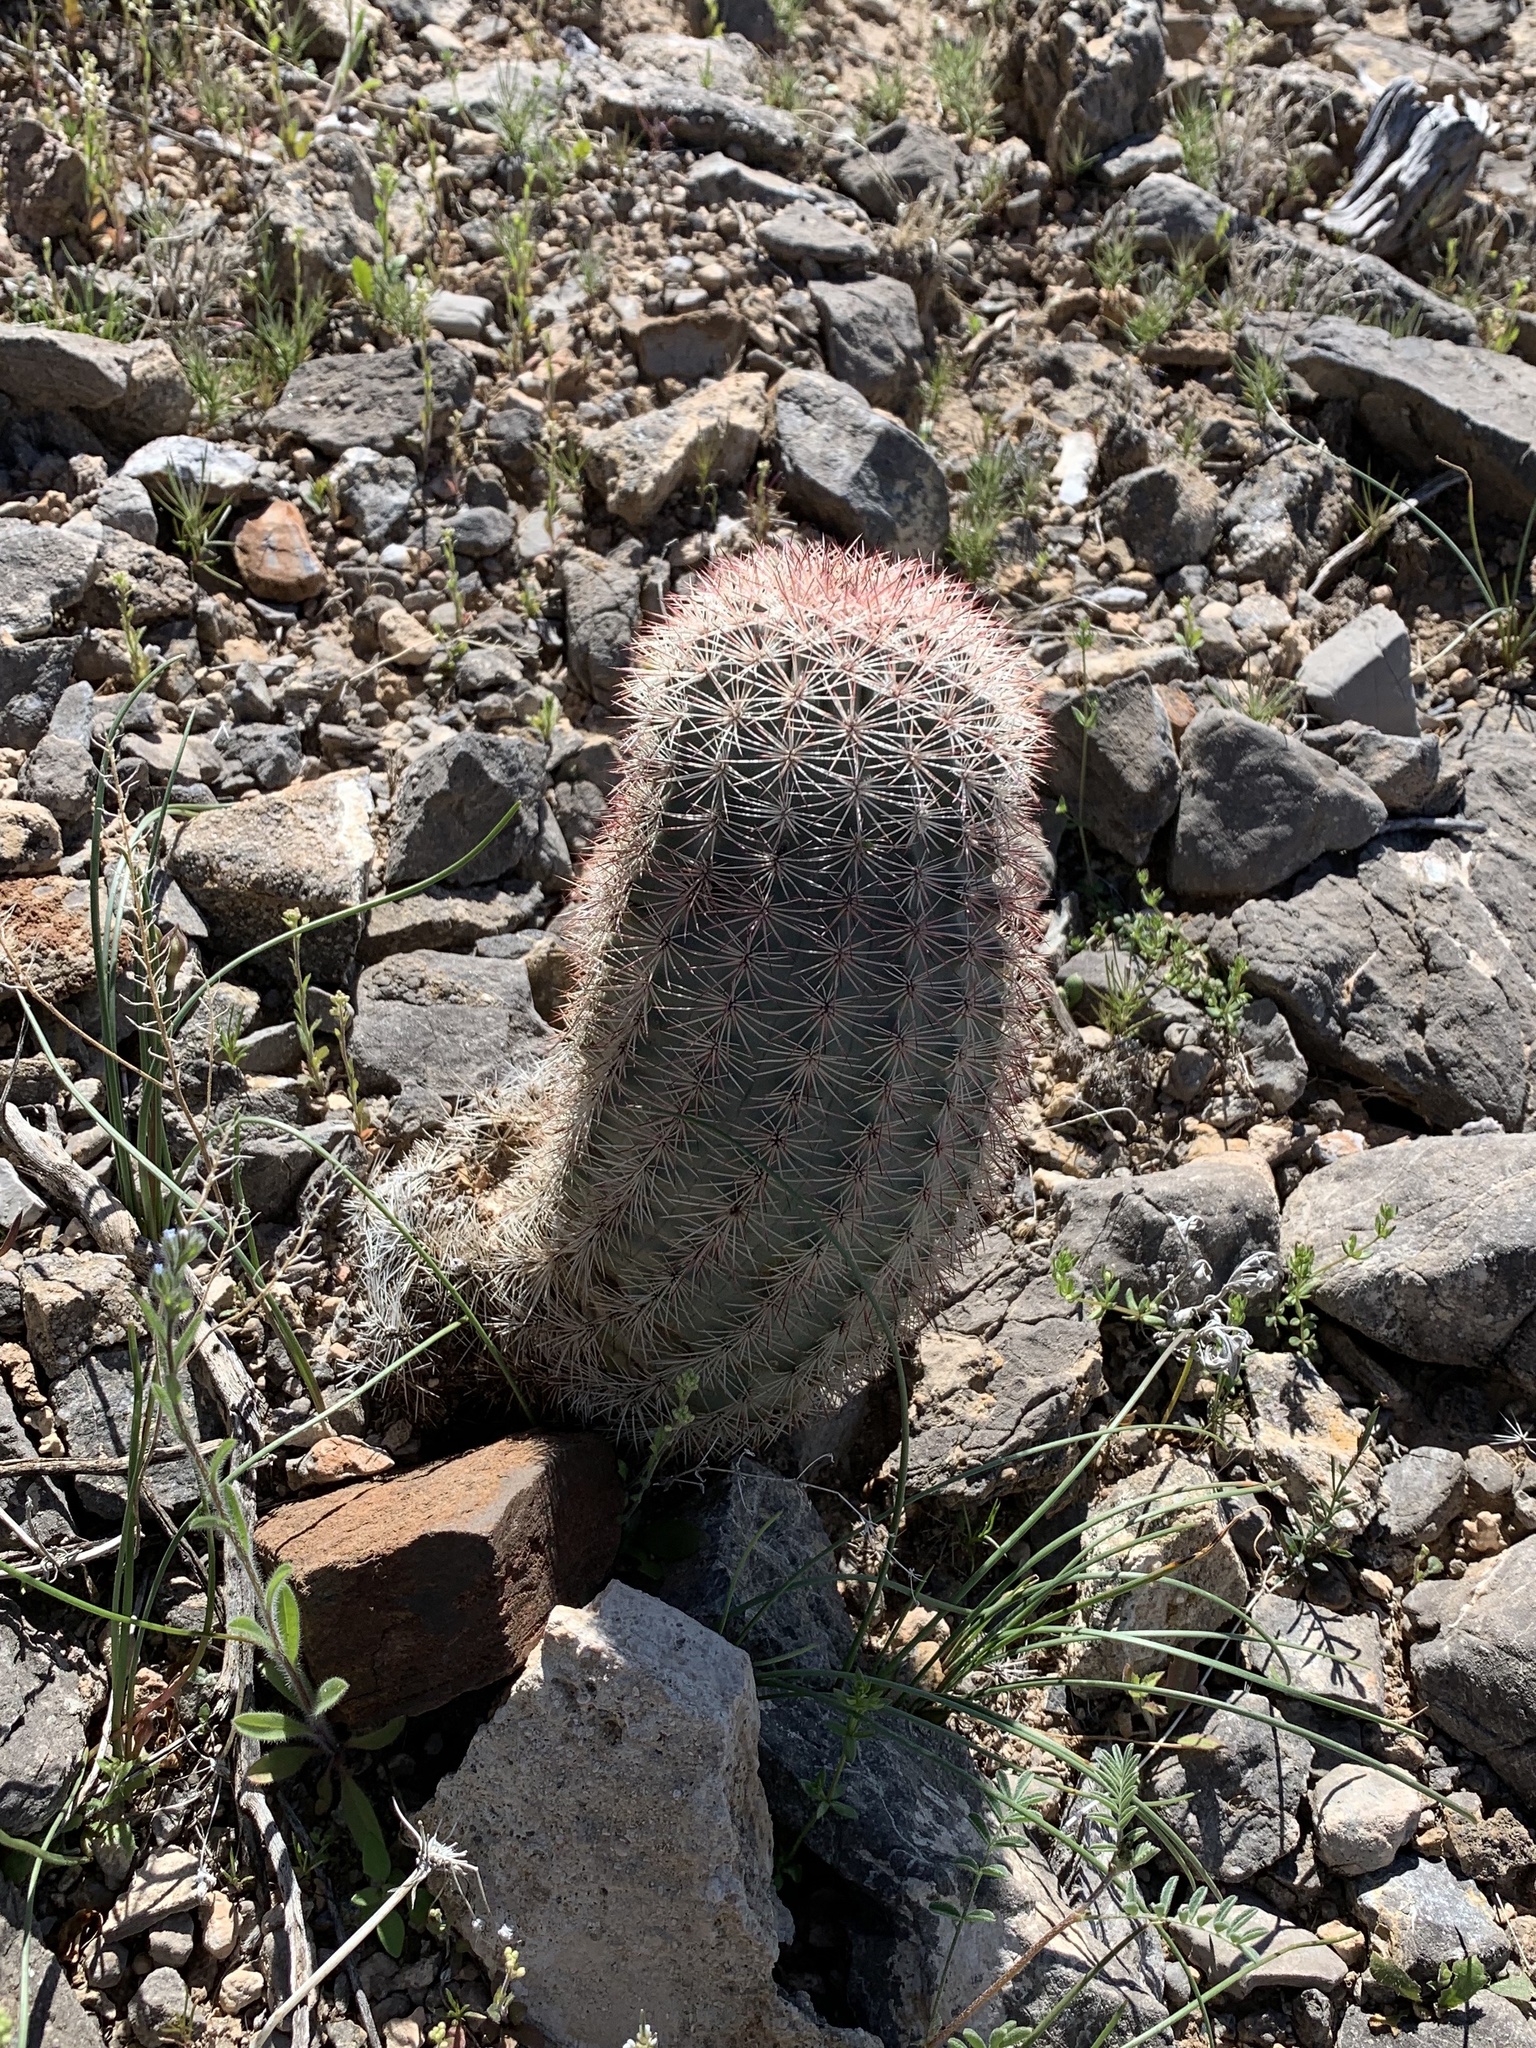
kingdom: Plantae
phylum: Tracheophyta
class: Magnoliopsida
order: Caryophyllales
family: Cactaceae
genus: Echinocereus
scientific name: Echinocereus dasyacanthus
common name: Spiny hedgehog cactus
